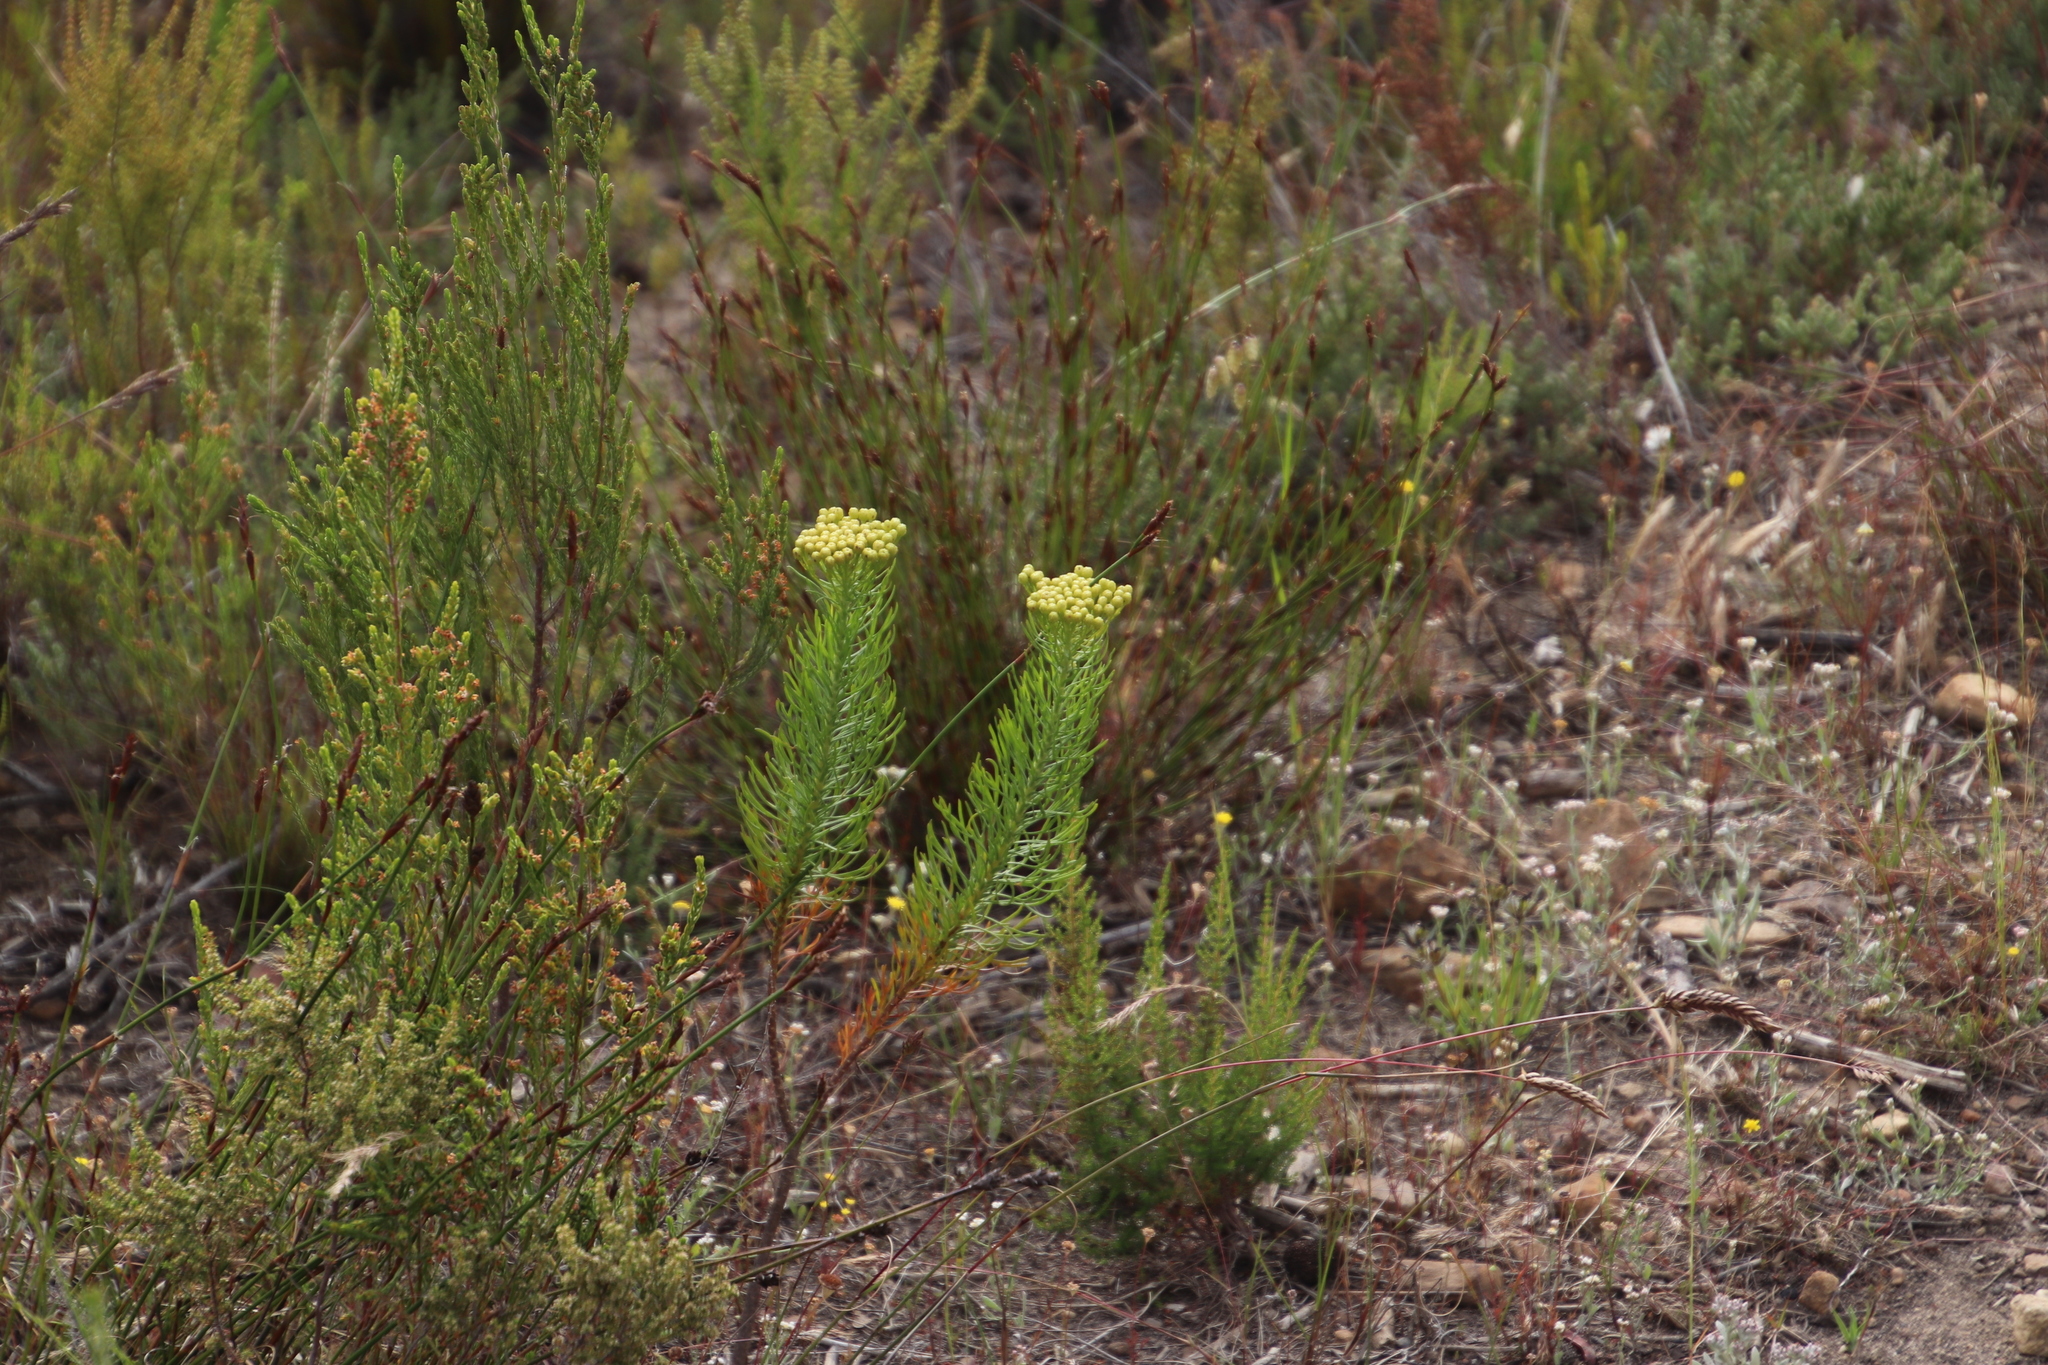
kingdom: Plantae
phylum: Tracheophyta
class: Magnoliopsida
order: Asterales
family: Asteraceae
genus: Athanasia
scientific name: Athanasia crithmifolia
